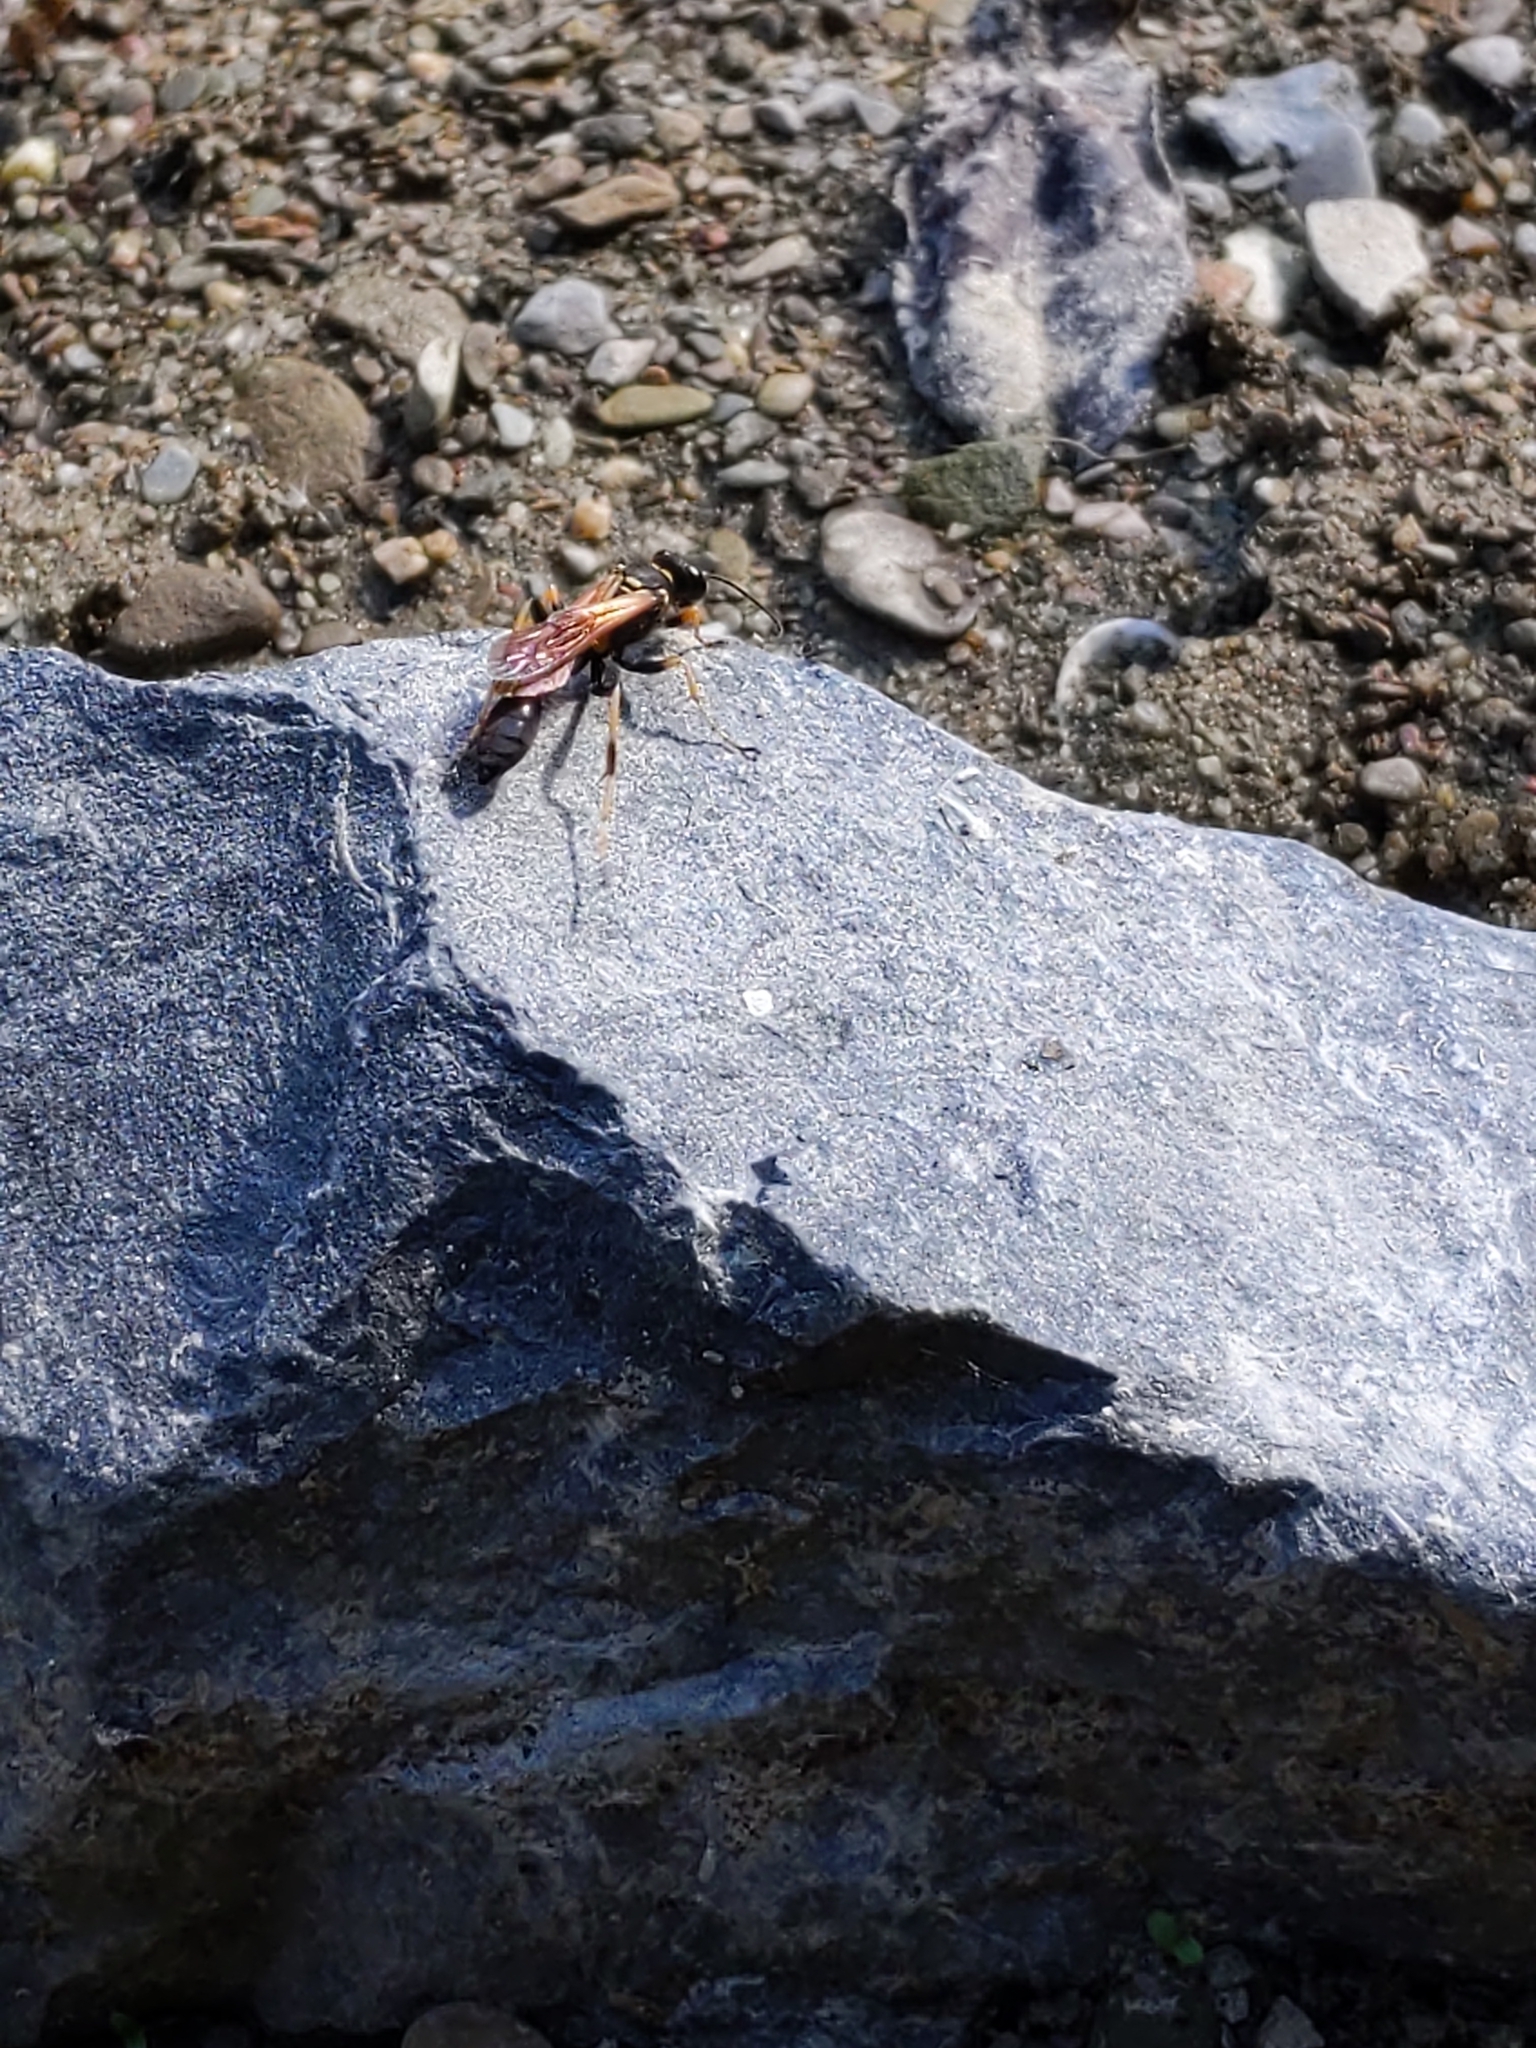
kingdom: Animalia
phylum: Arthropoda
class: Insecta
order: Hymenoptera
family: Sphecidae
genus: Sceliphron
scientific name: Sceliphron caementarium
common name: Mud dauber
